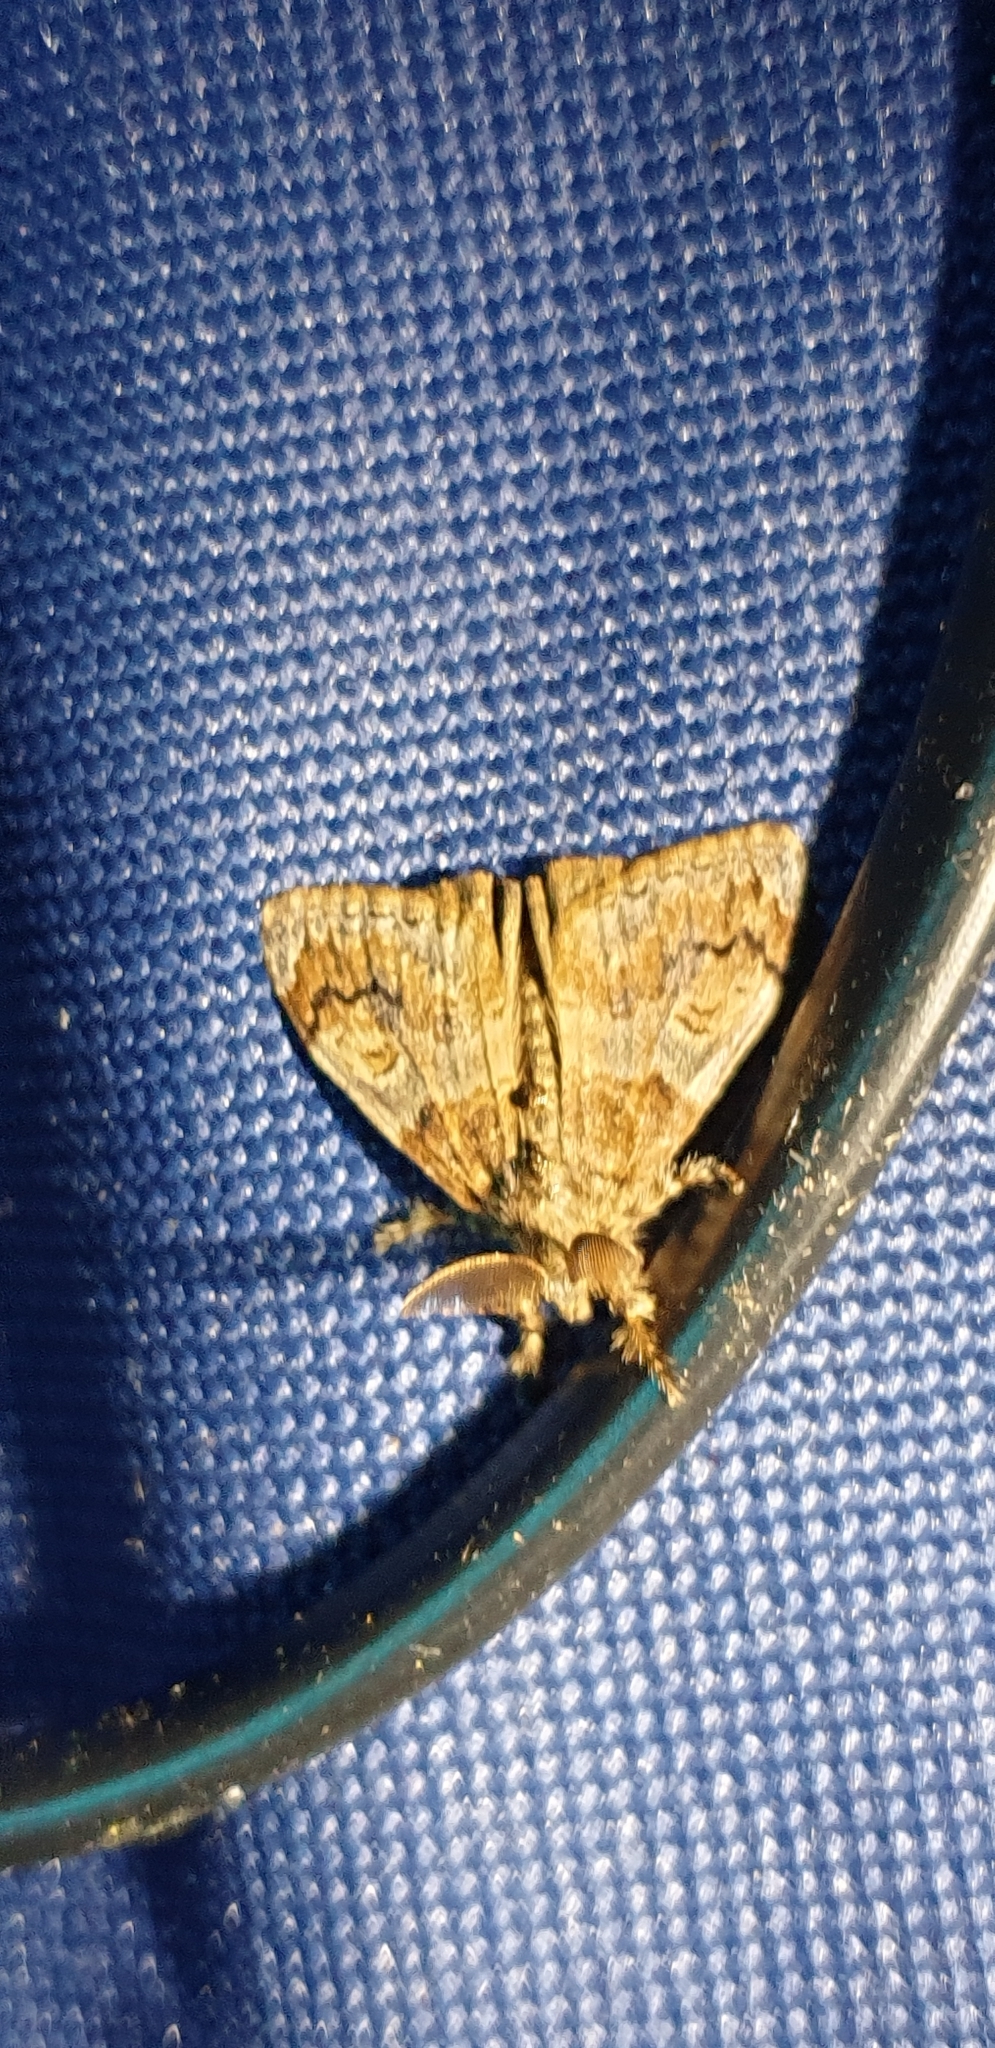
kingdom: Animalia
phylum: Arthropoda
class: Insecta
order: Lepidoptera
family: Erebidae
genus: Orgyia
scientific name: Orgyia australis
